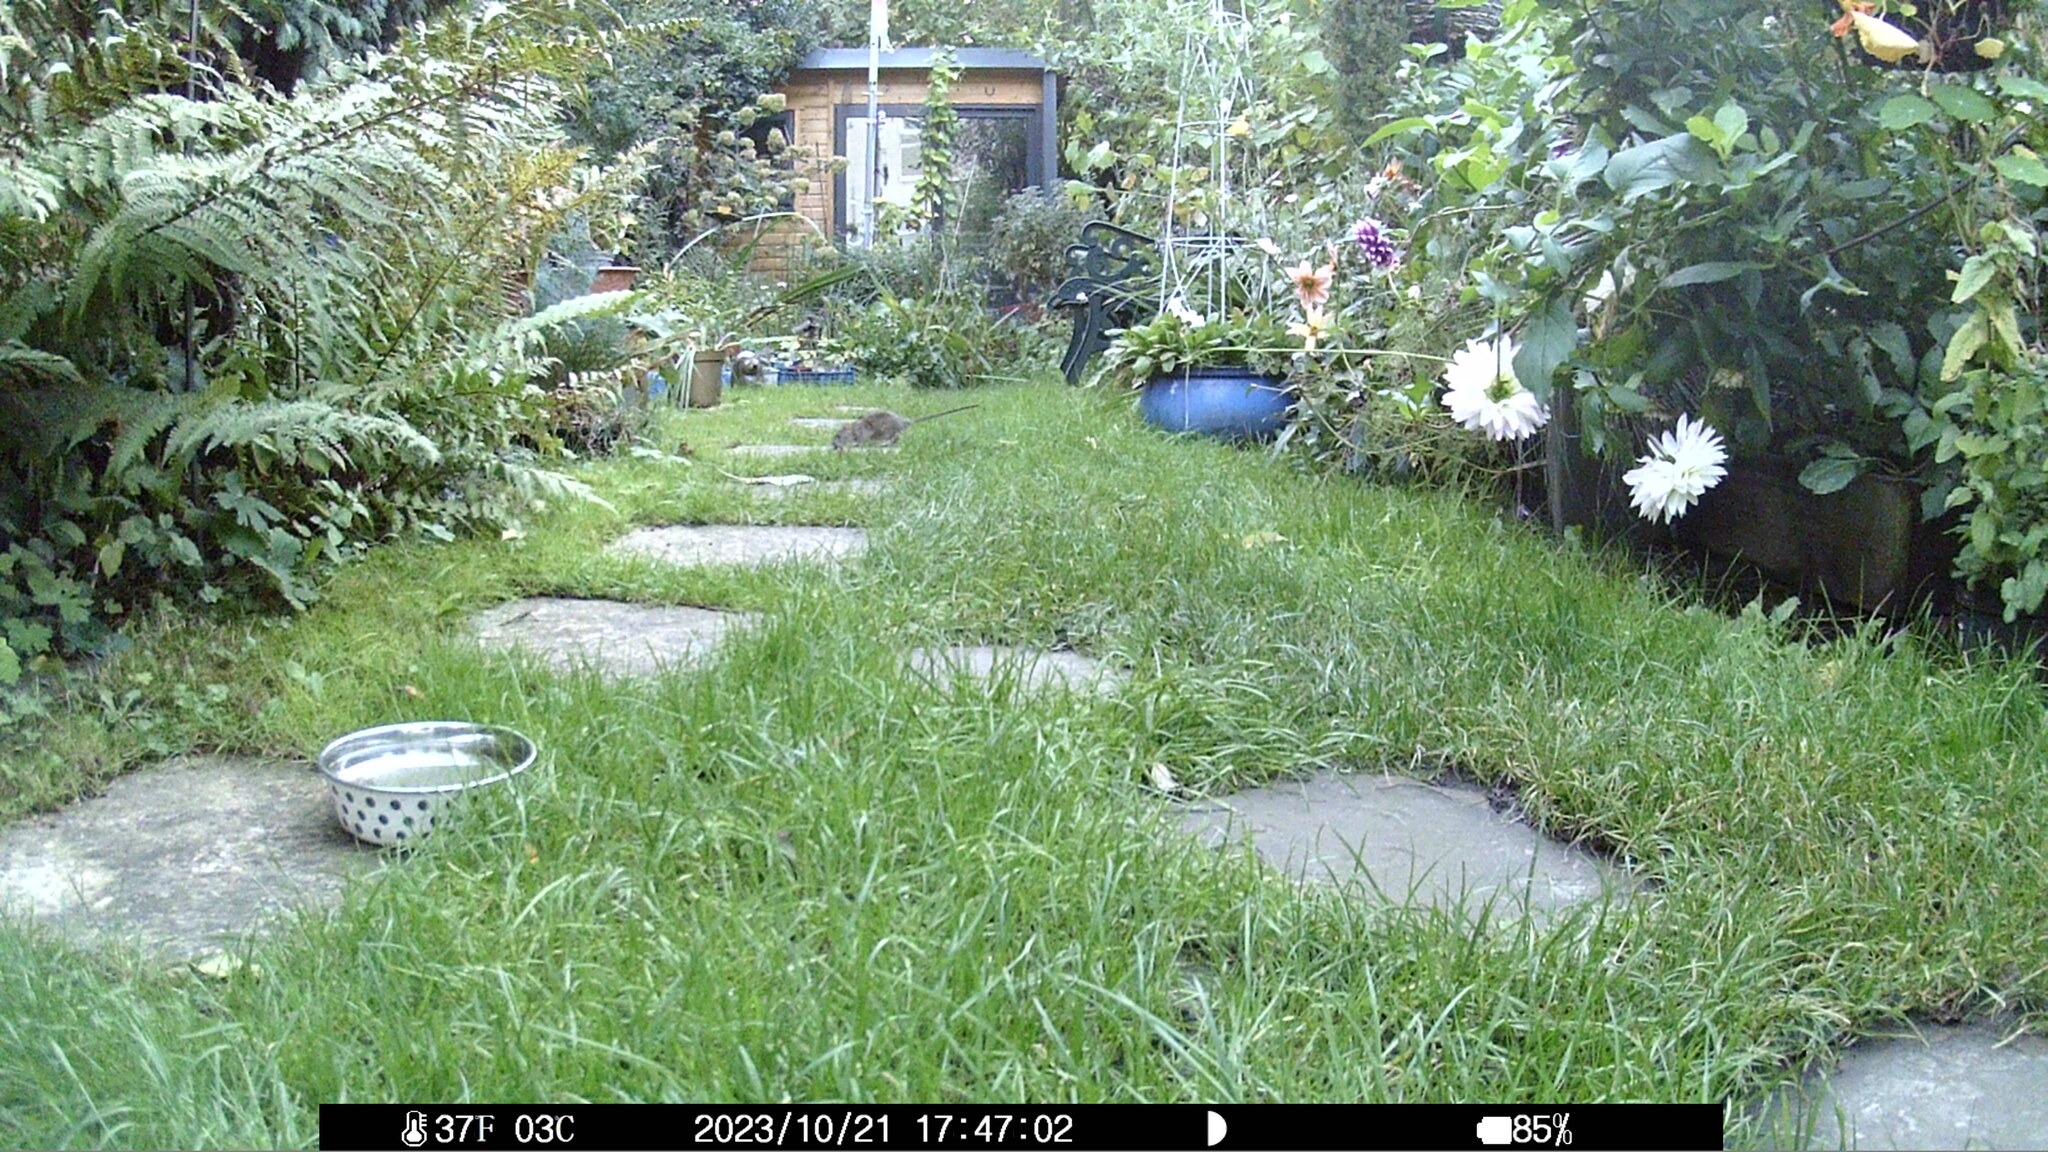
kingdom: Animalia
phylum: Chordata
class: Mammalia
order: Rodentia
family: Muridae
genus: Rattus
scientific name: Rattus norvegicus
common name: Brown rat
